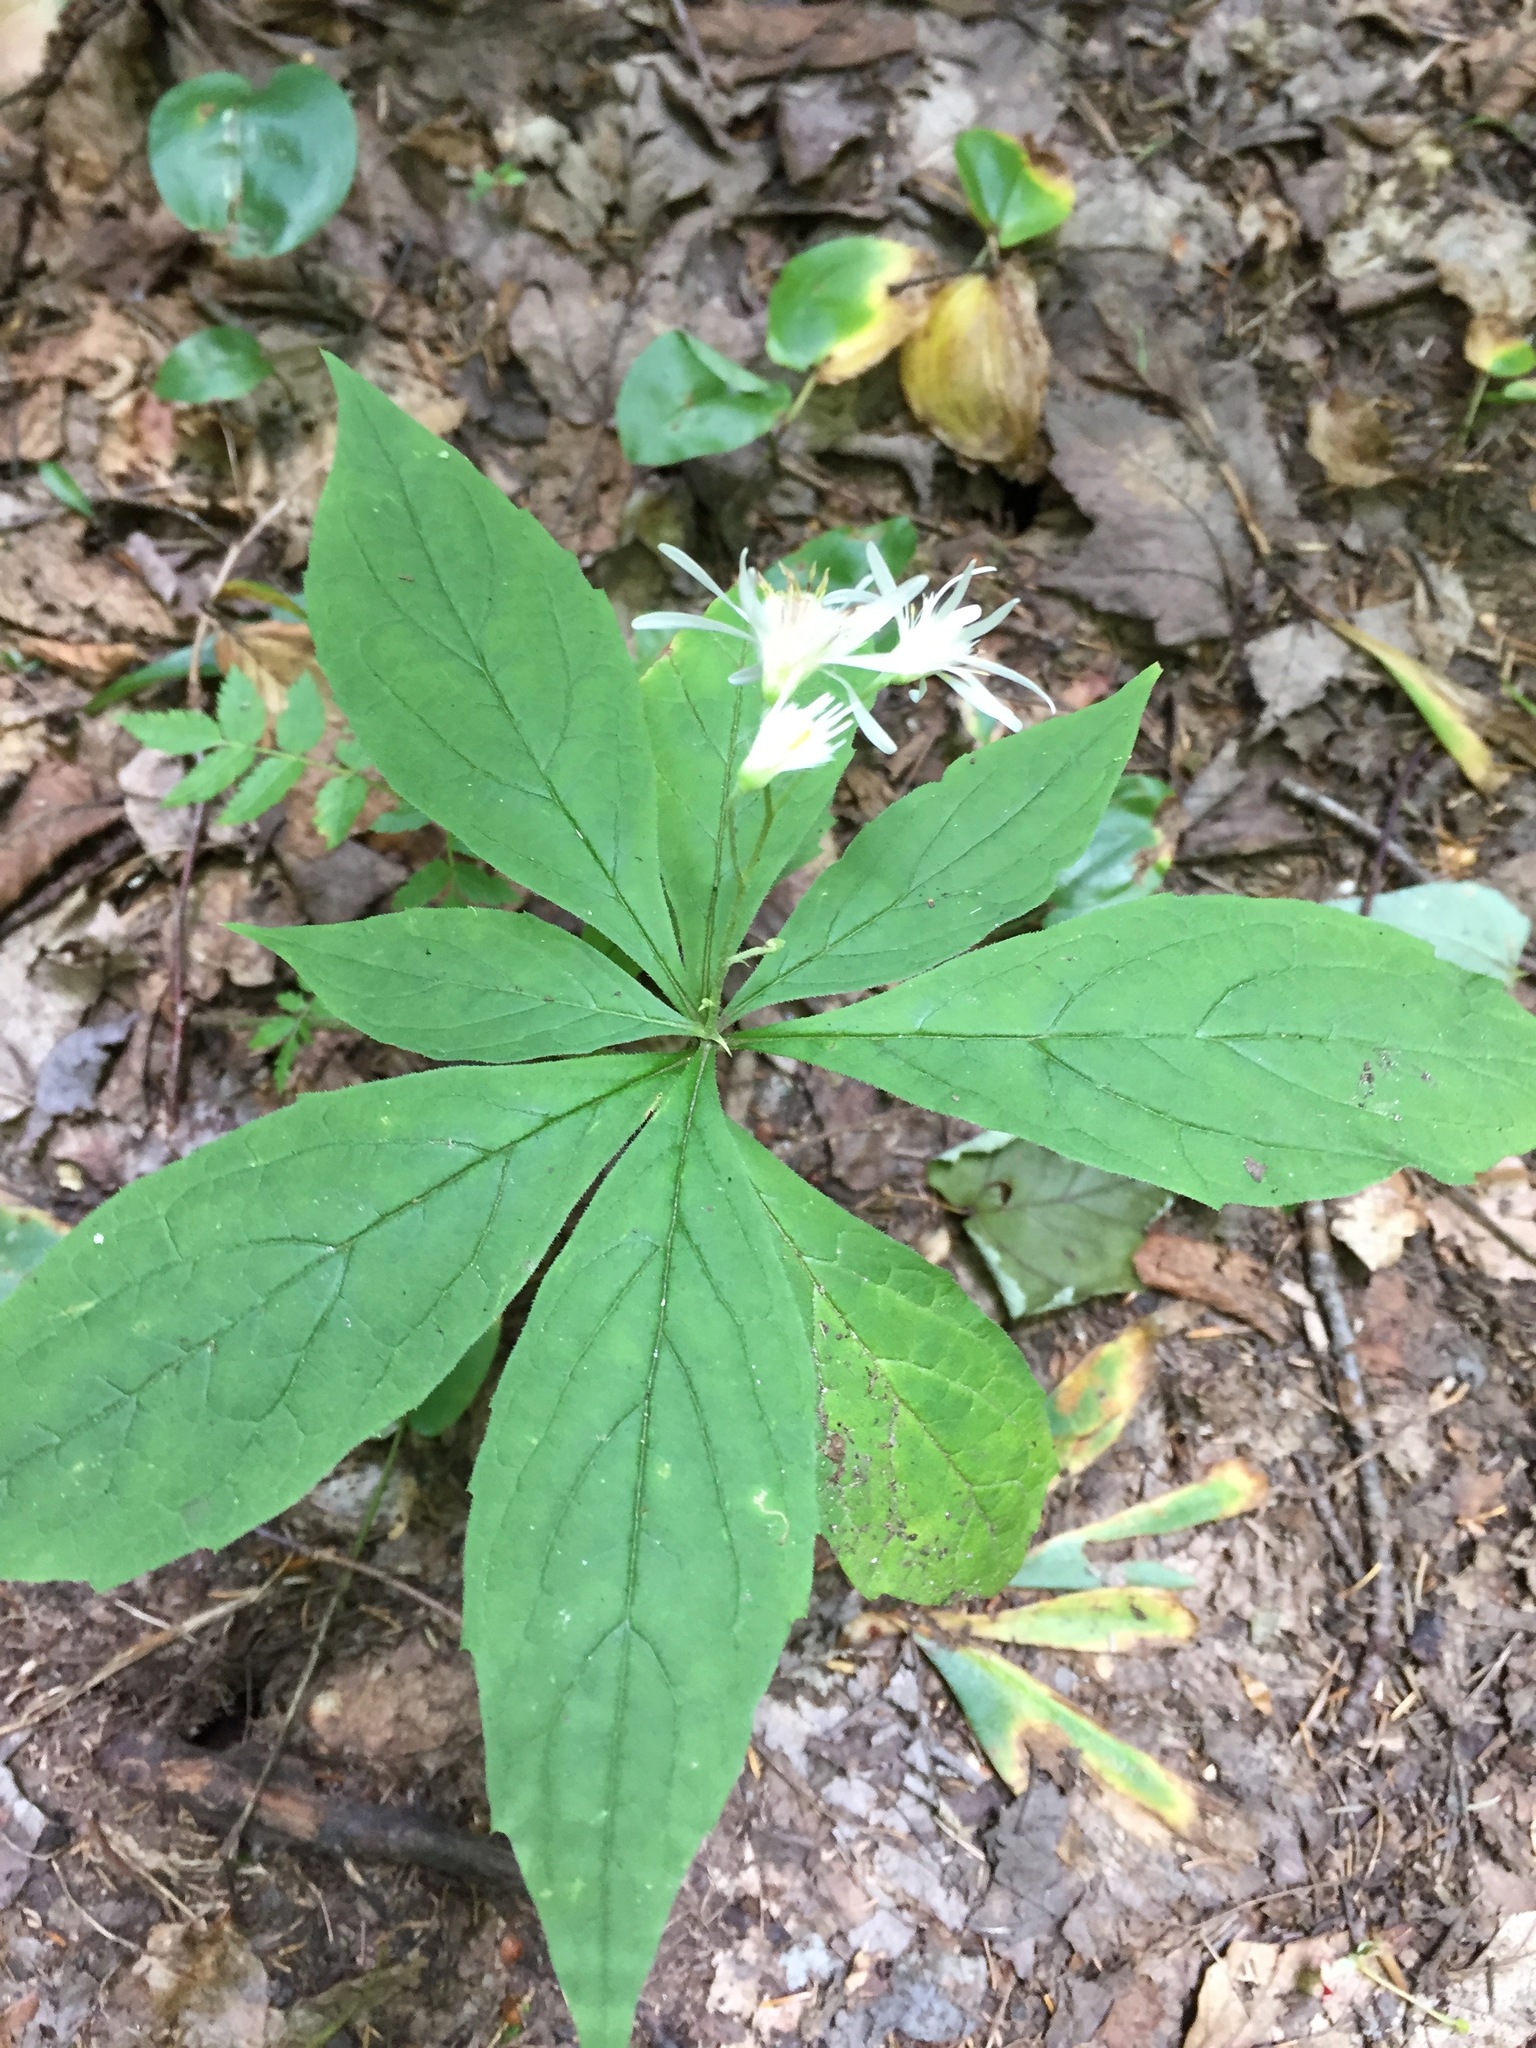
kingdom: Plantae
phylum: Tracheophyta
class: Magnoliopsida
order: Asterales
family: Asteraceae
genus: Oclemena
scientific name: Oclemena acuminata
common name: Mountain aster
